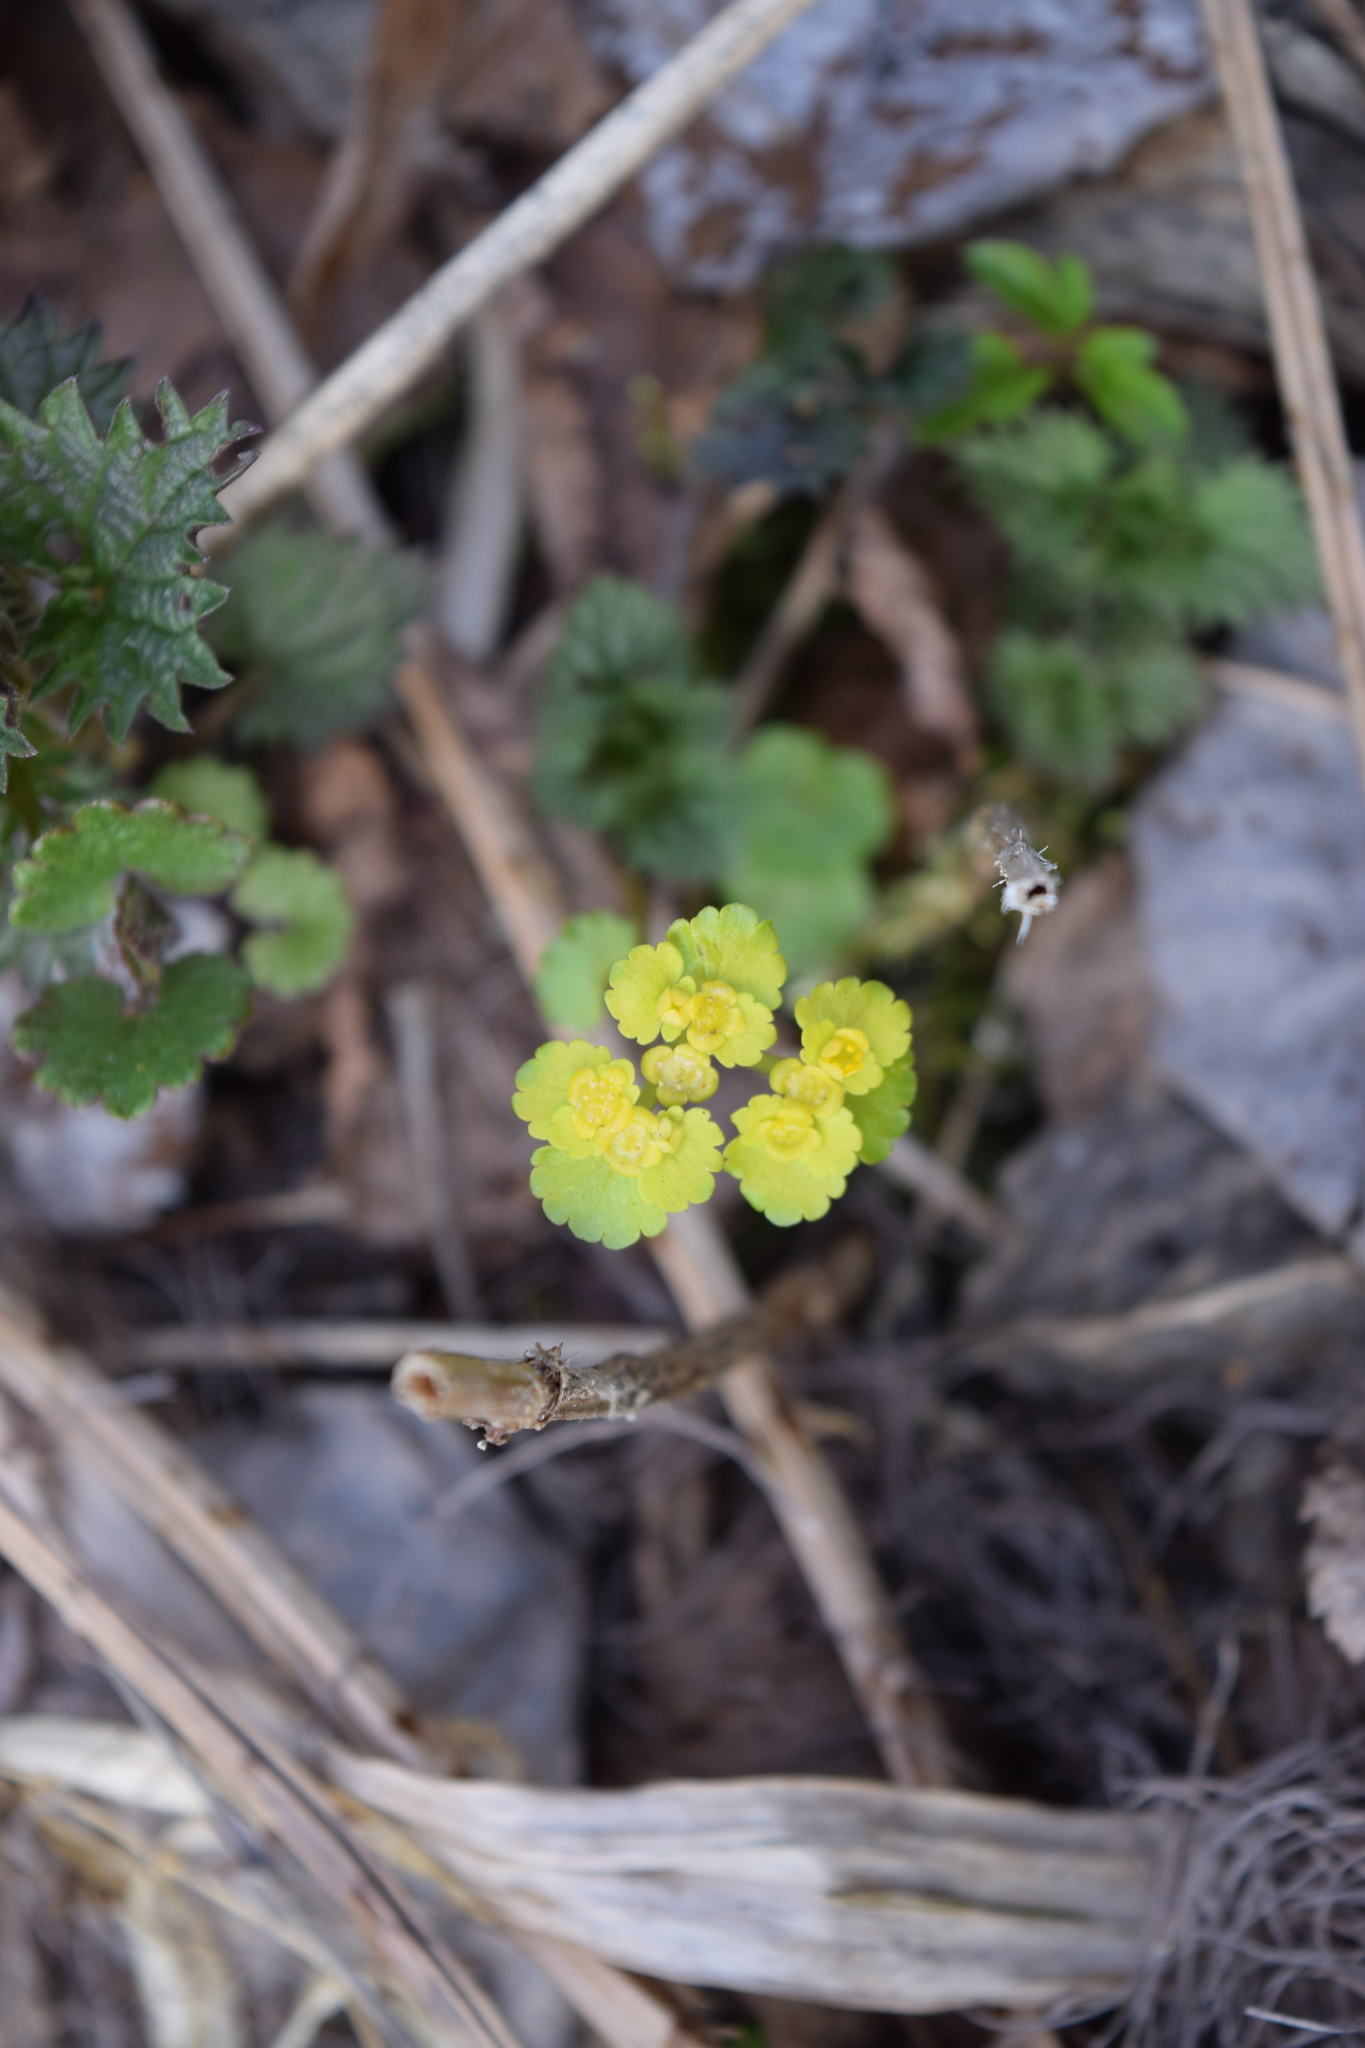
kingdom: Plantae
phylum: Tracheophyta
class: Magnoliopsida
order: Saxifragales
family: Saxifragaceae
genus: Chrysosplenium
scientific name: Chrysosplenium alternifolium
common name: Alternate-leaved golden-saxifrage
